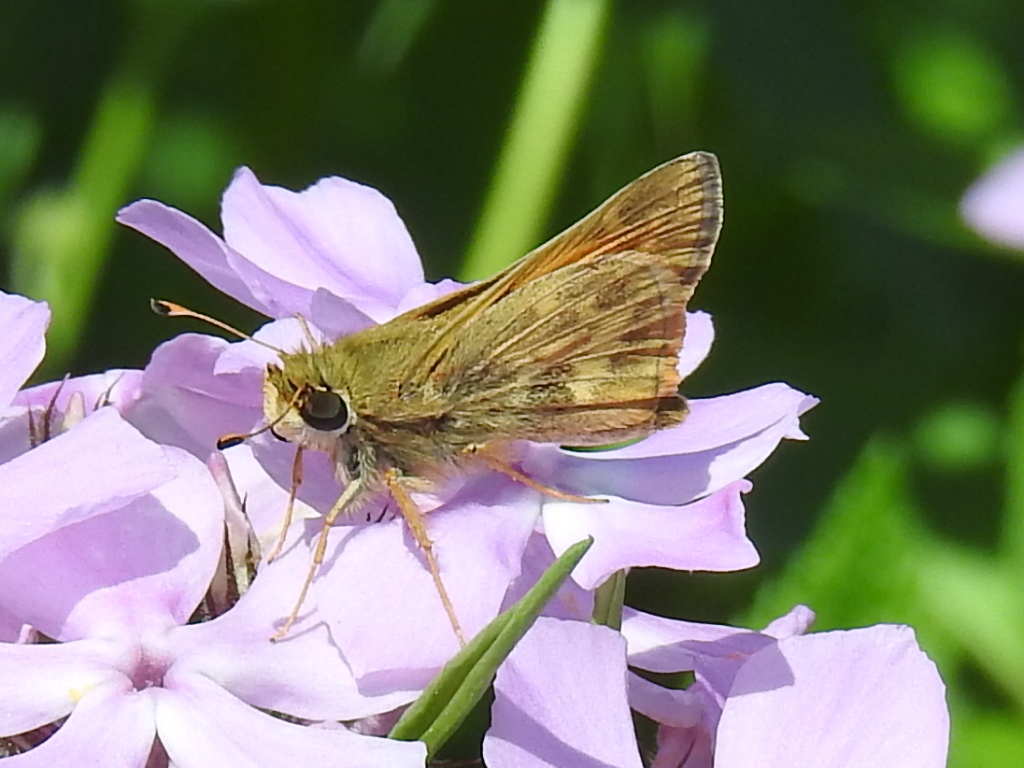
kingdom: Animalia
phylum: Arthropoda
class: Insecta
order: Lepidoptera
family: Hesperiidae
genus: Atalopedes
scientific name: Atalopedes
